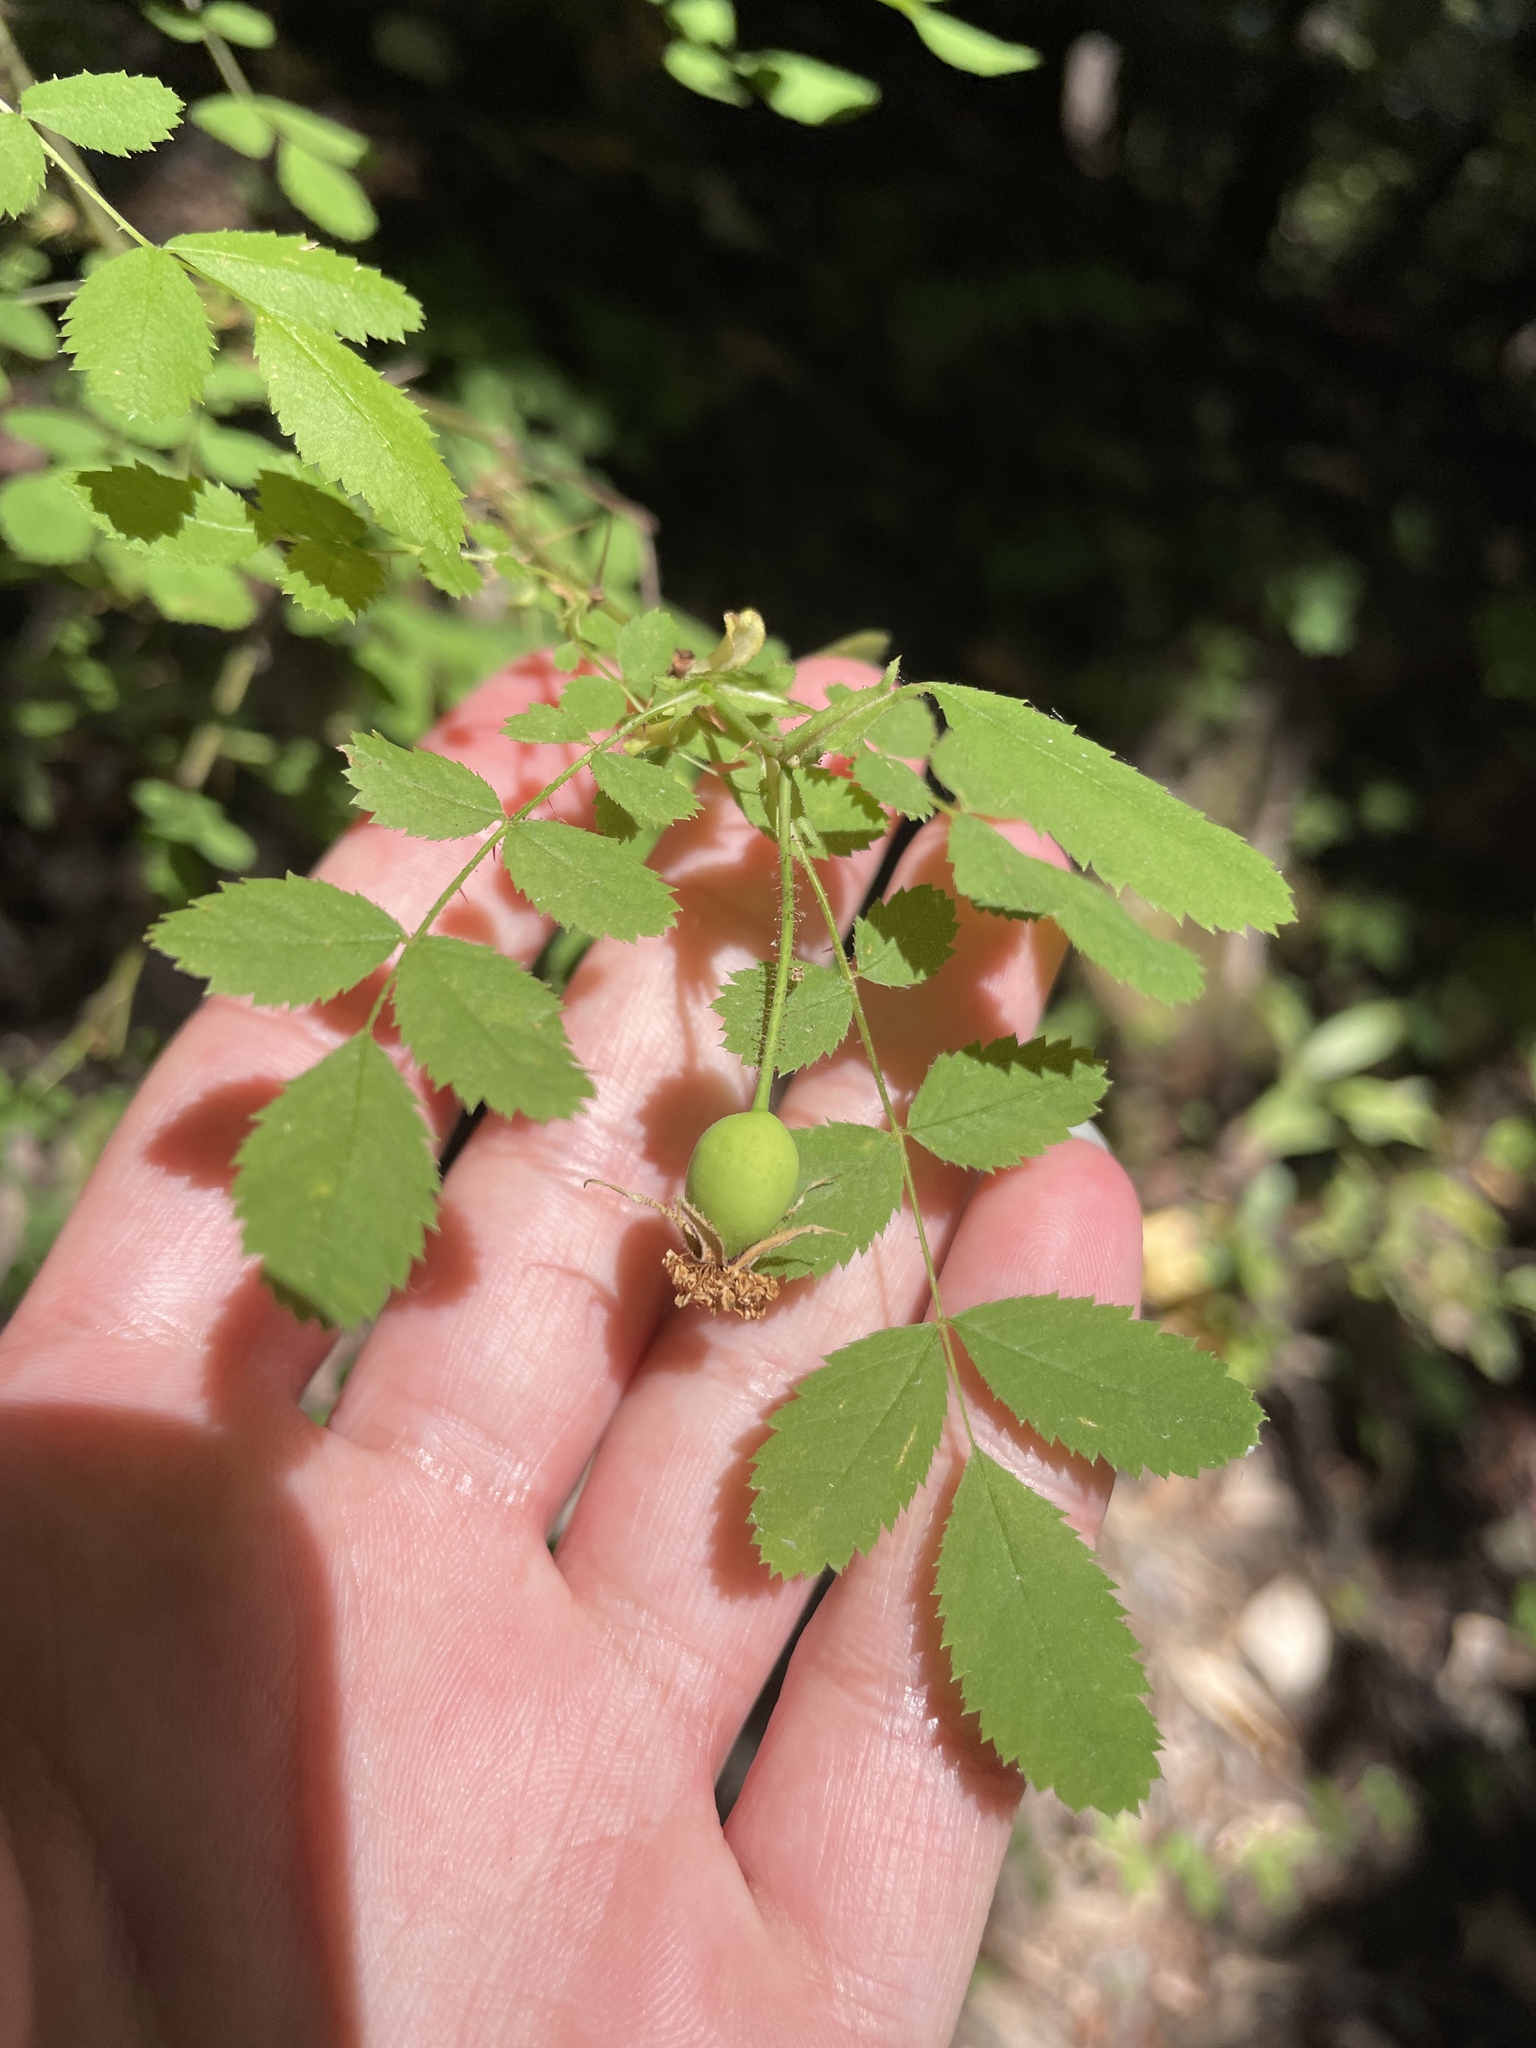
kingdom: Plantae
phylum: Tracheophyta
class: Magnoliopsida
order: Rosales
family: Rosaceae
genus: Rosa
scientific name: Rosa gymnocarpa
